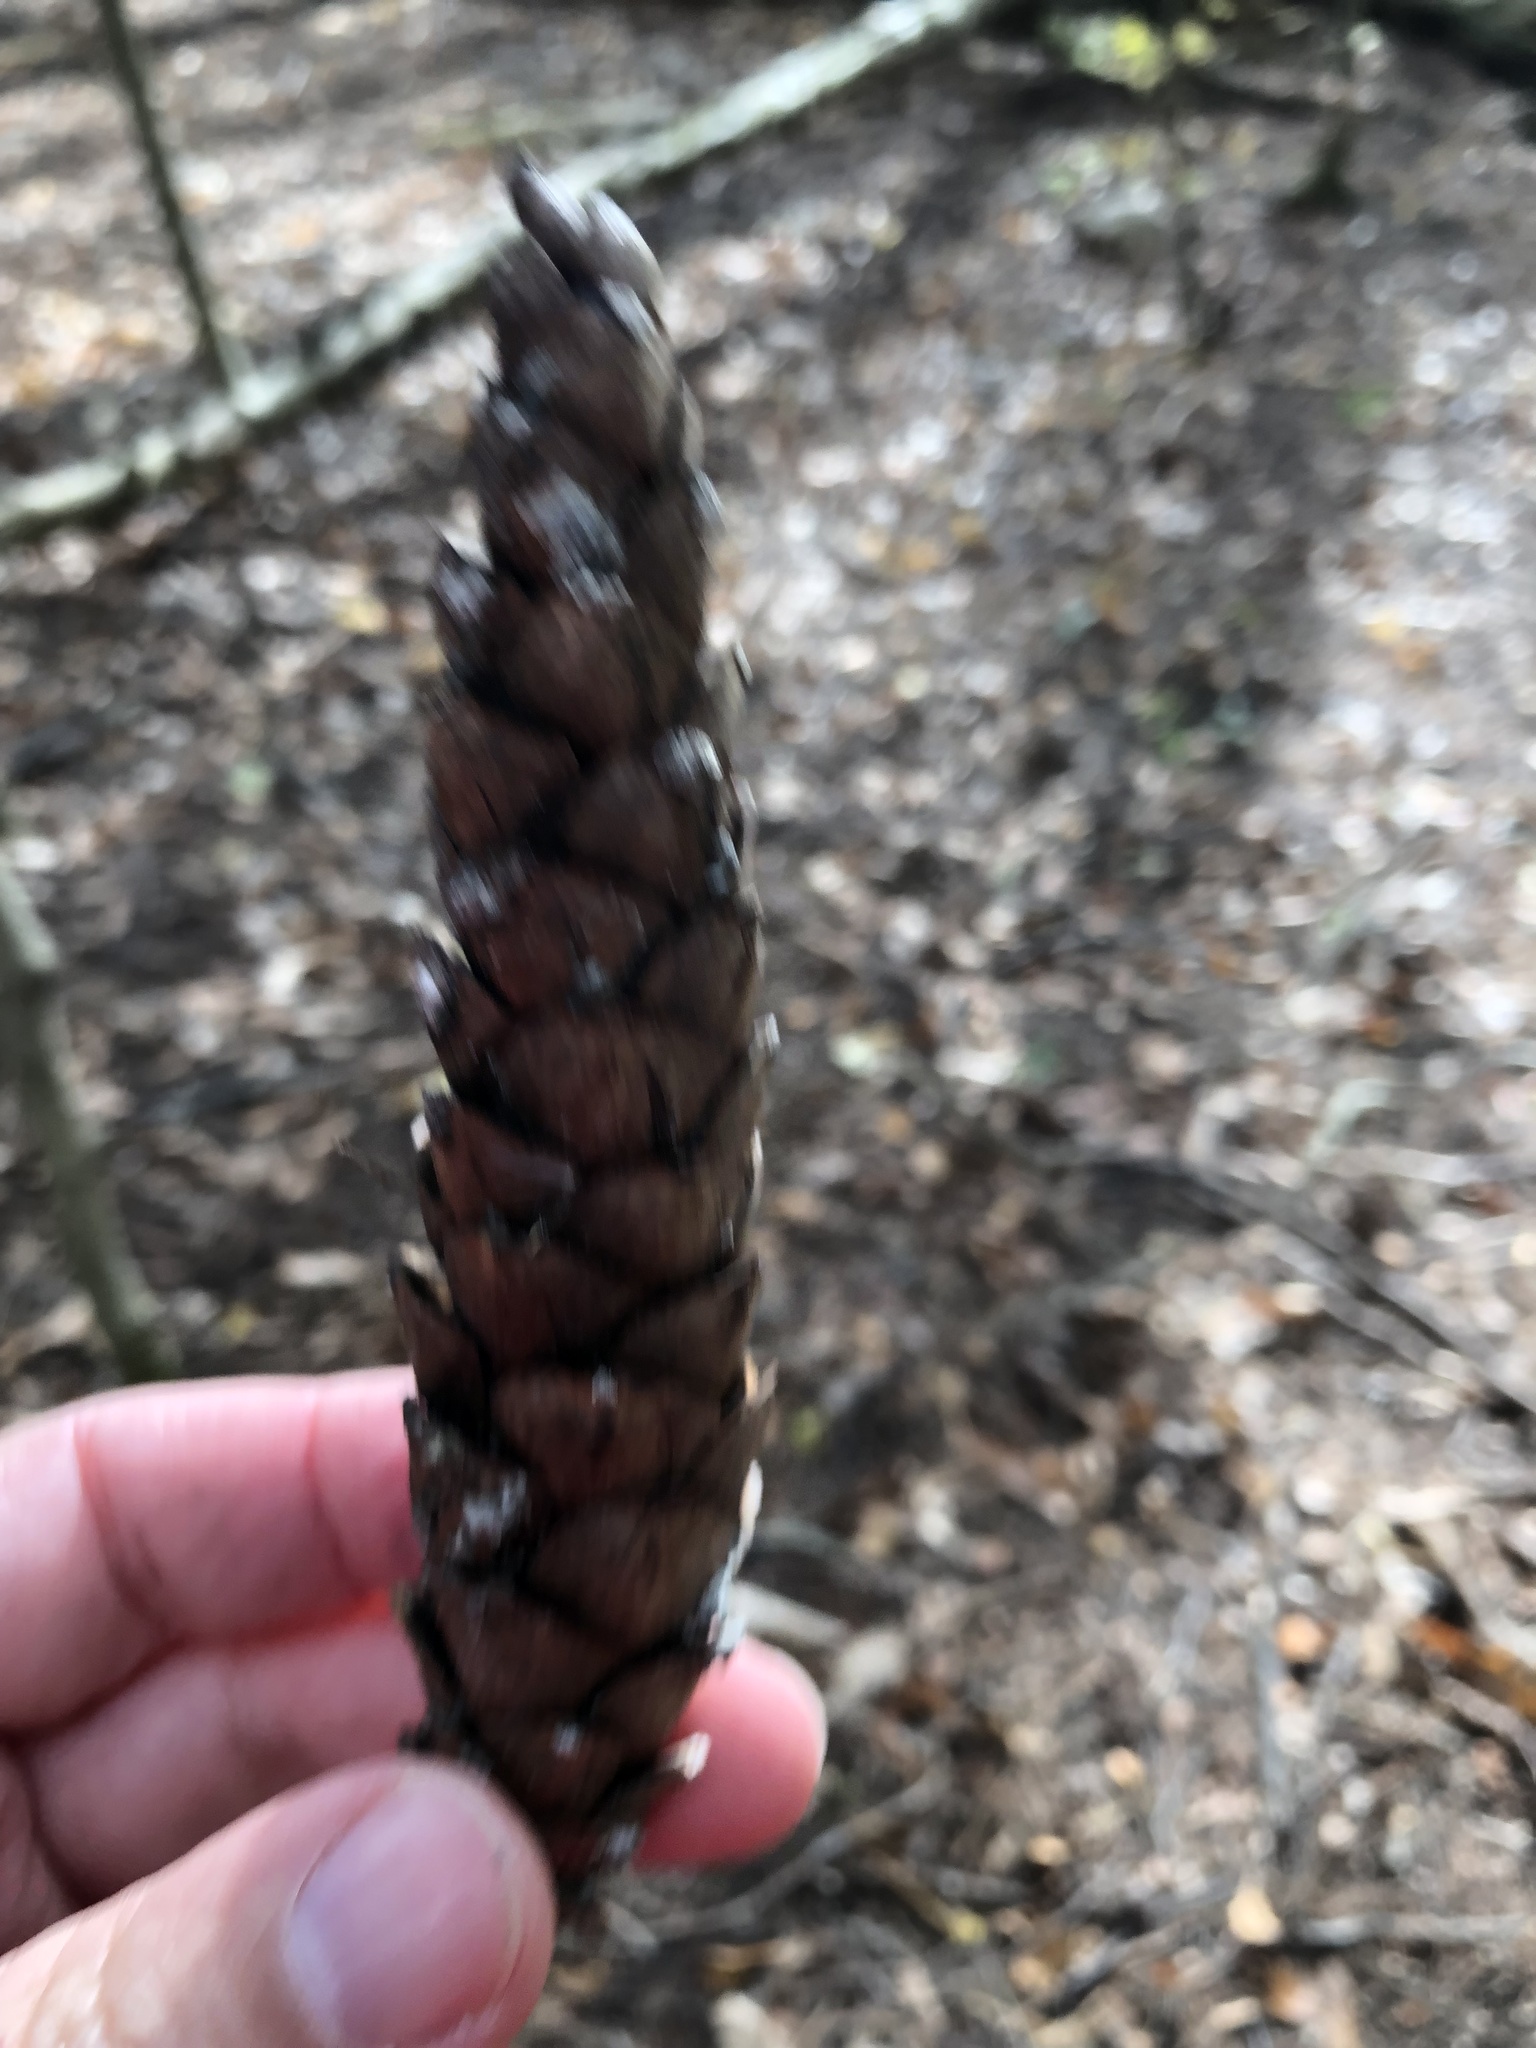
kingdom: Plantae
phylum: Tracheophyta
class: Pinopsida
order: Pinales
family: Pinaceae
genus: Pinus
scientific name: Pinus strobus
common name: Weymouth pine
